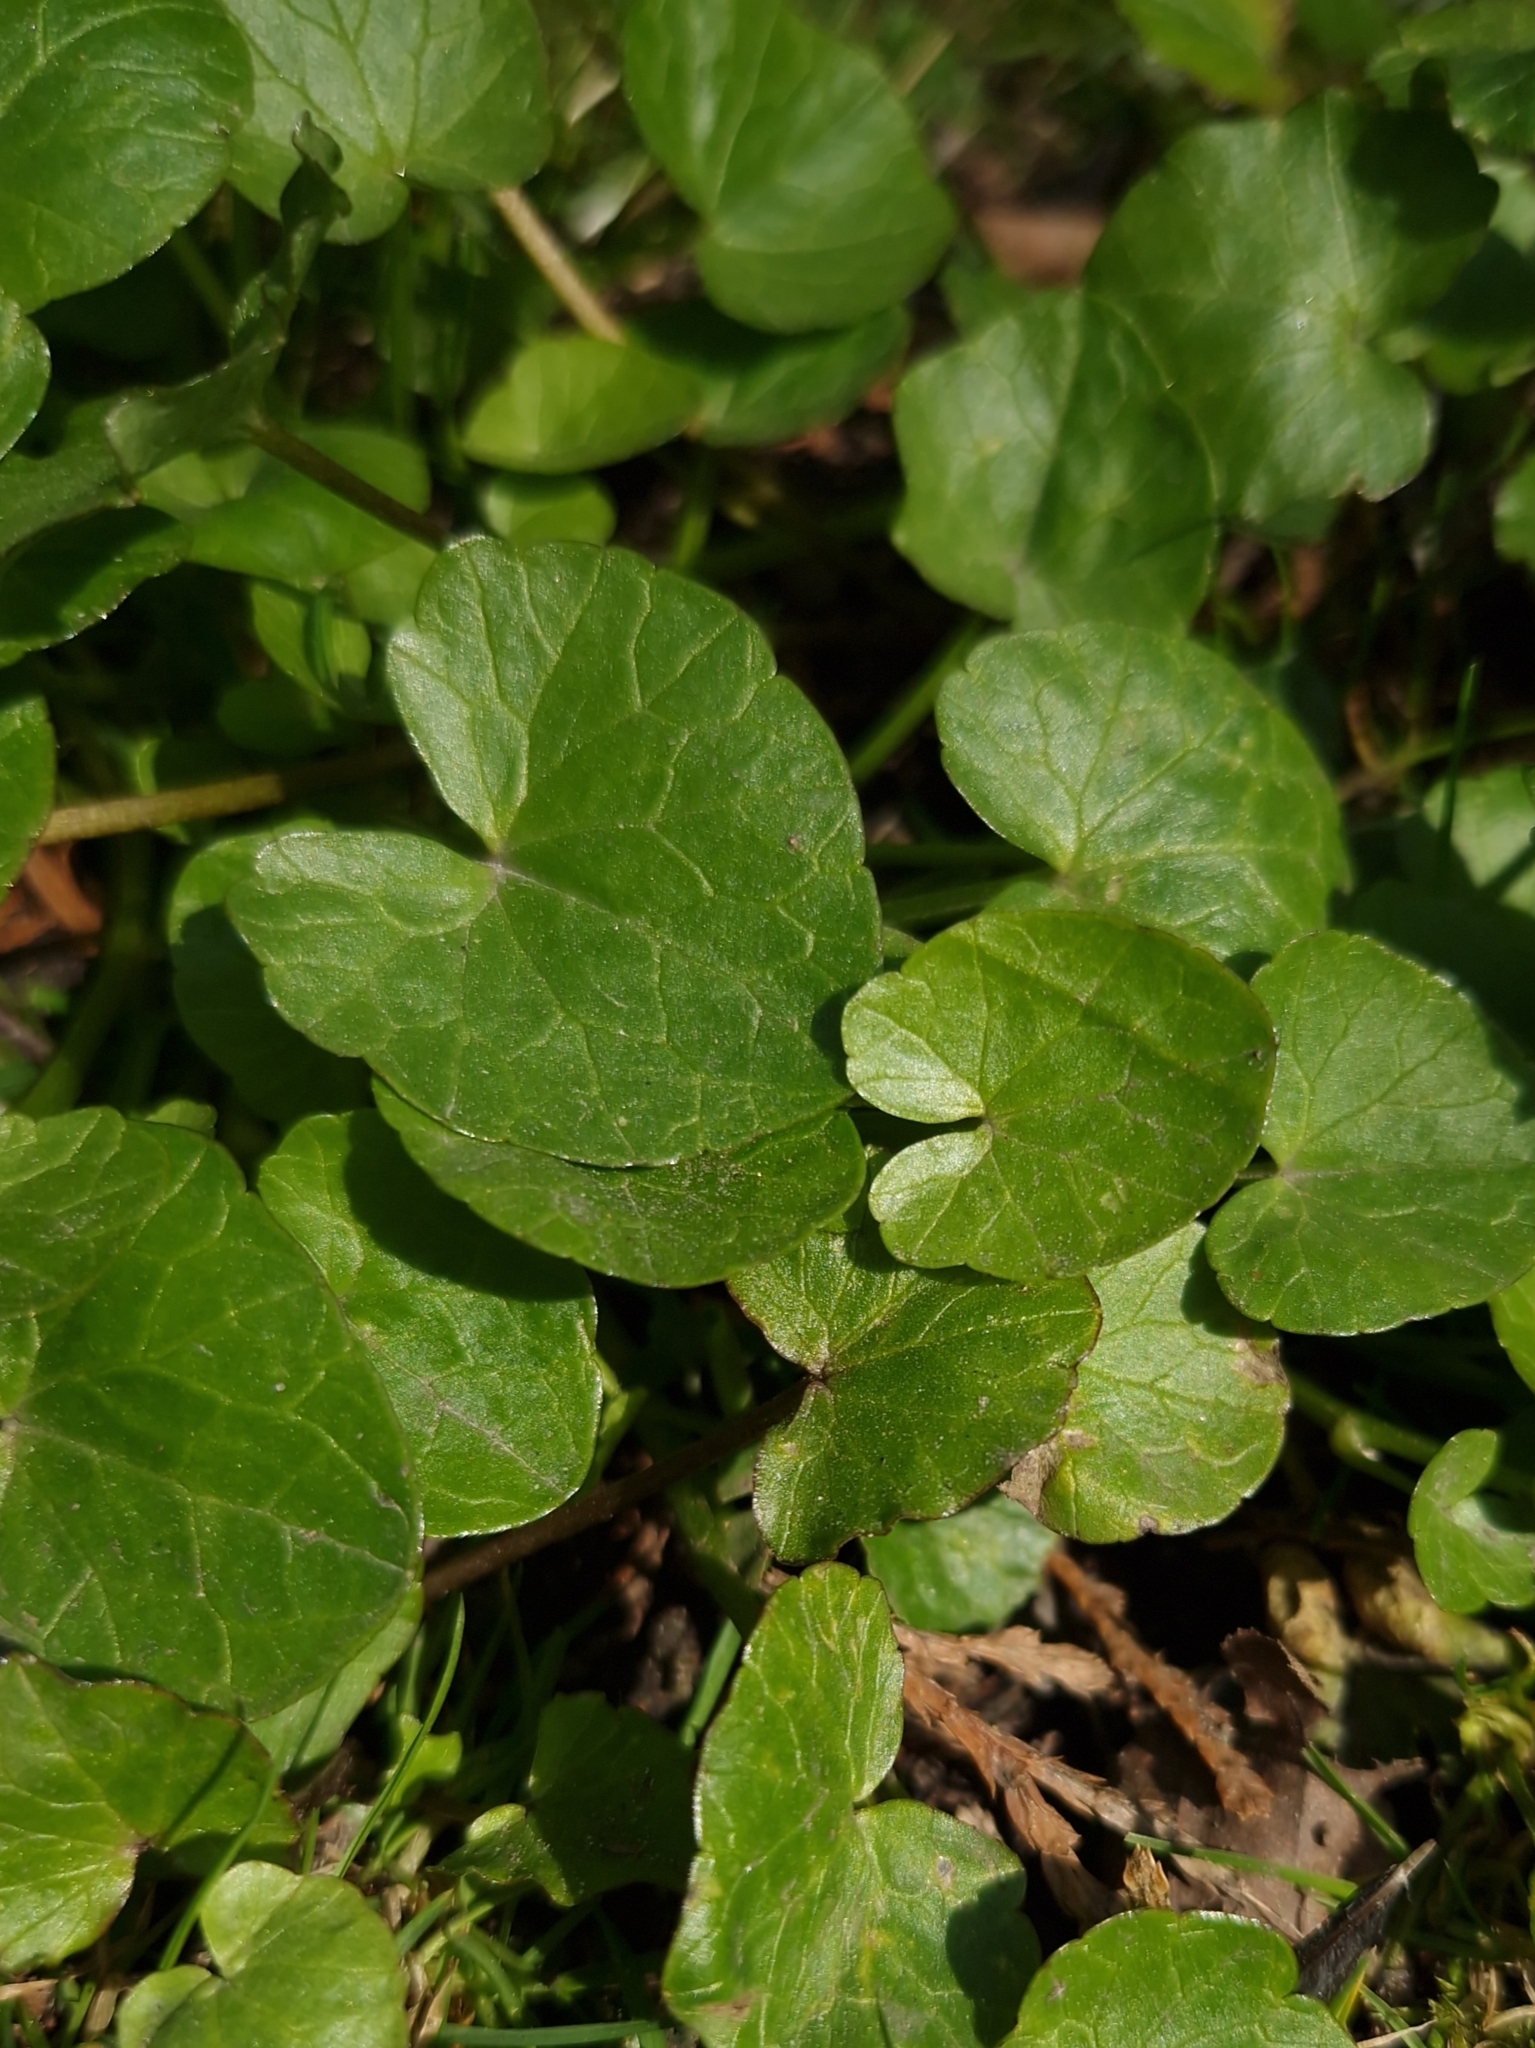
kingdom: Plantae
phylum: Tracheophyta
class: Magnoliopsida
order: Ranunculales
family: Ranunculaceae
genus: Ficaria
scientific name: Ficaria verna
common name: Lesser celandine
